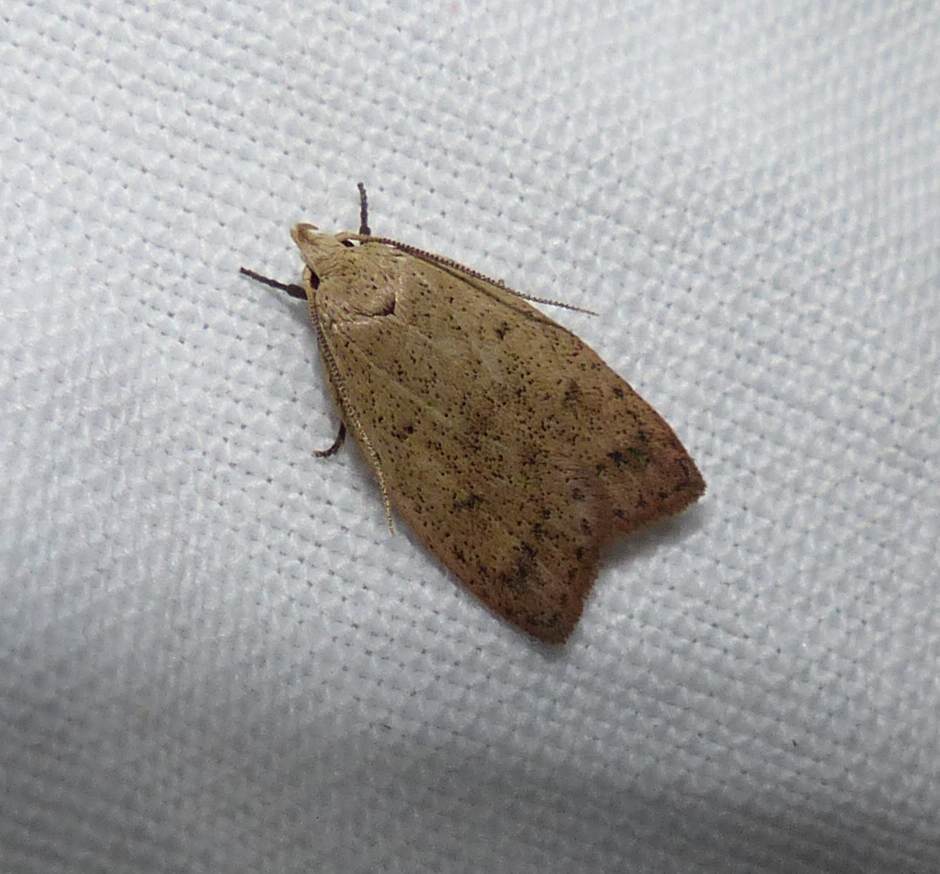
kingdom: Animalia
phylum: Arthropoda
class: Insecta
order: Lepidoptera
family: Peleopodidae
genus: Machimia
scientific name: Machimia tentoriferella
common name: Gold-striped leaftier moth
